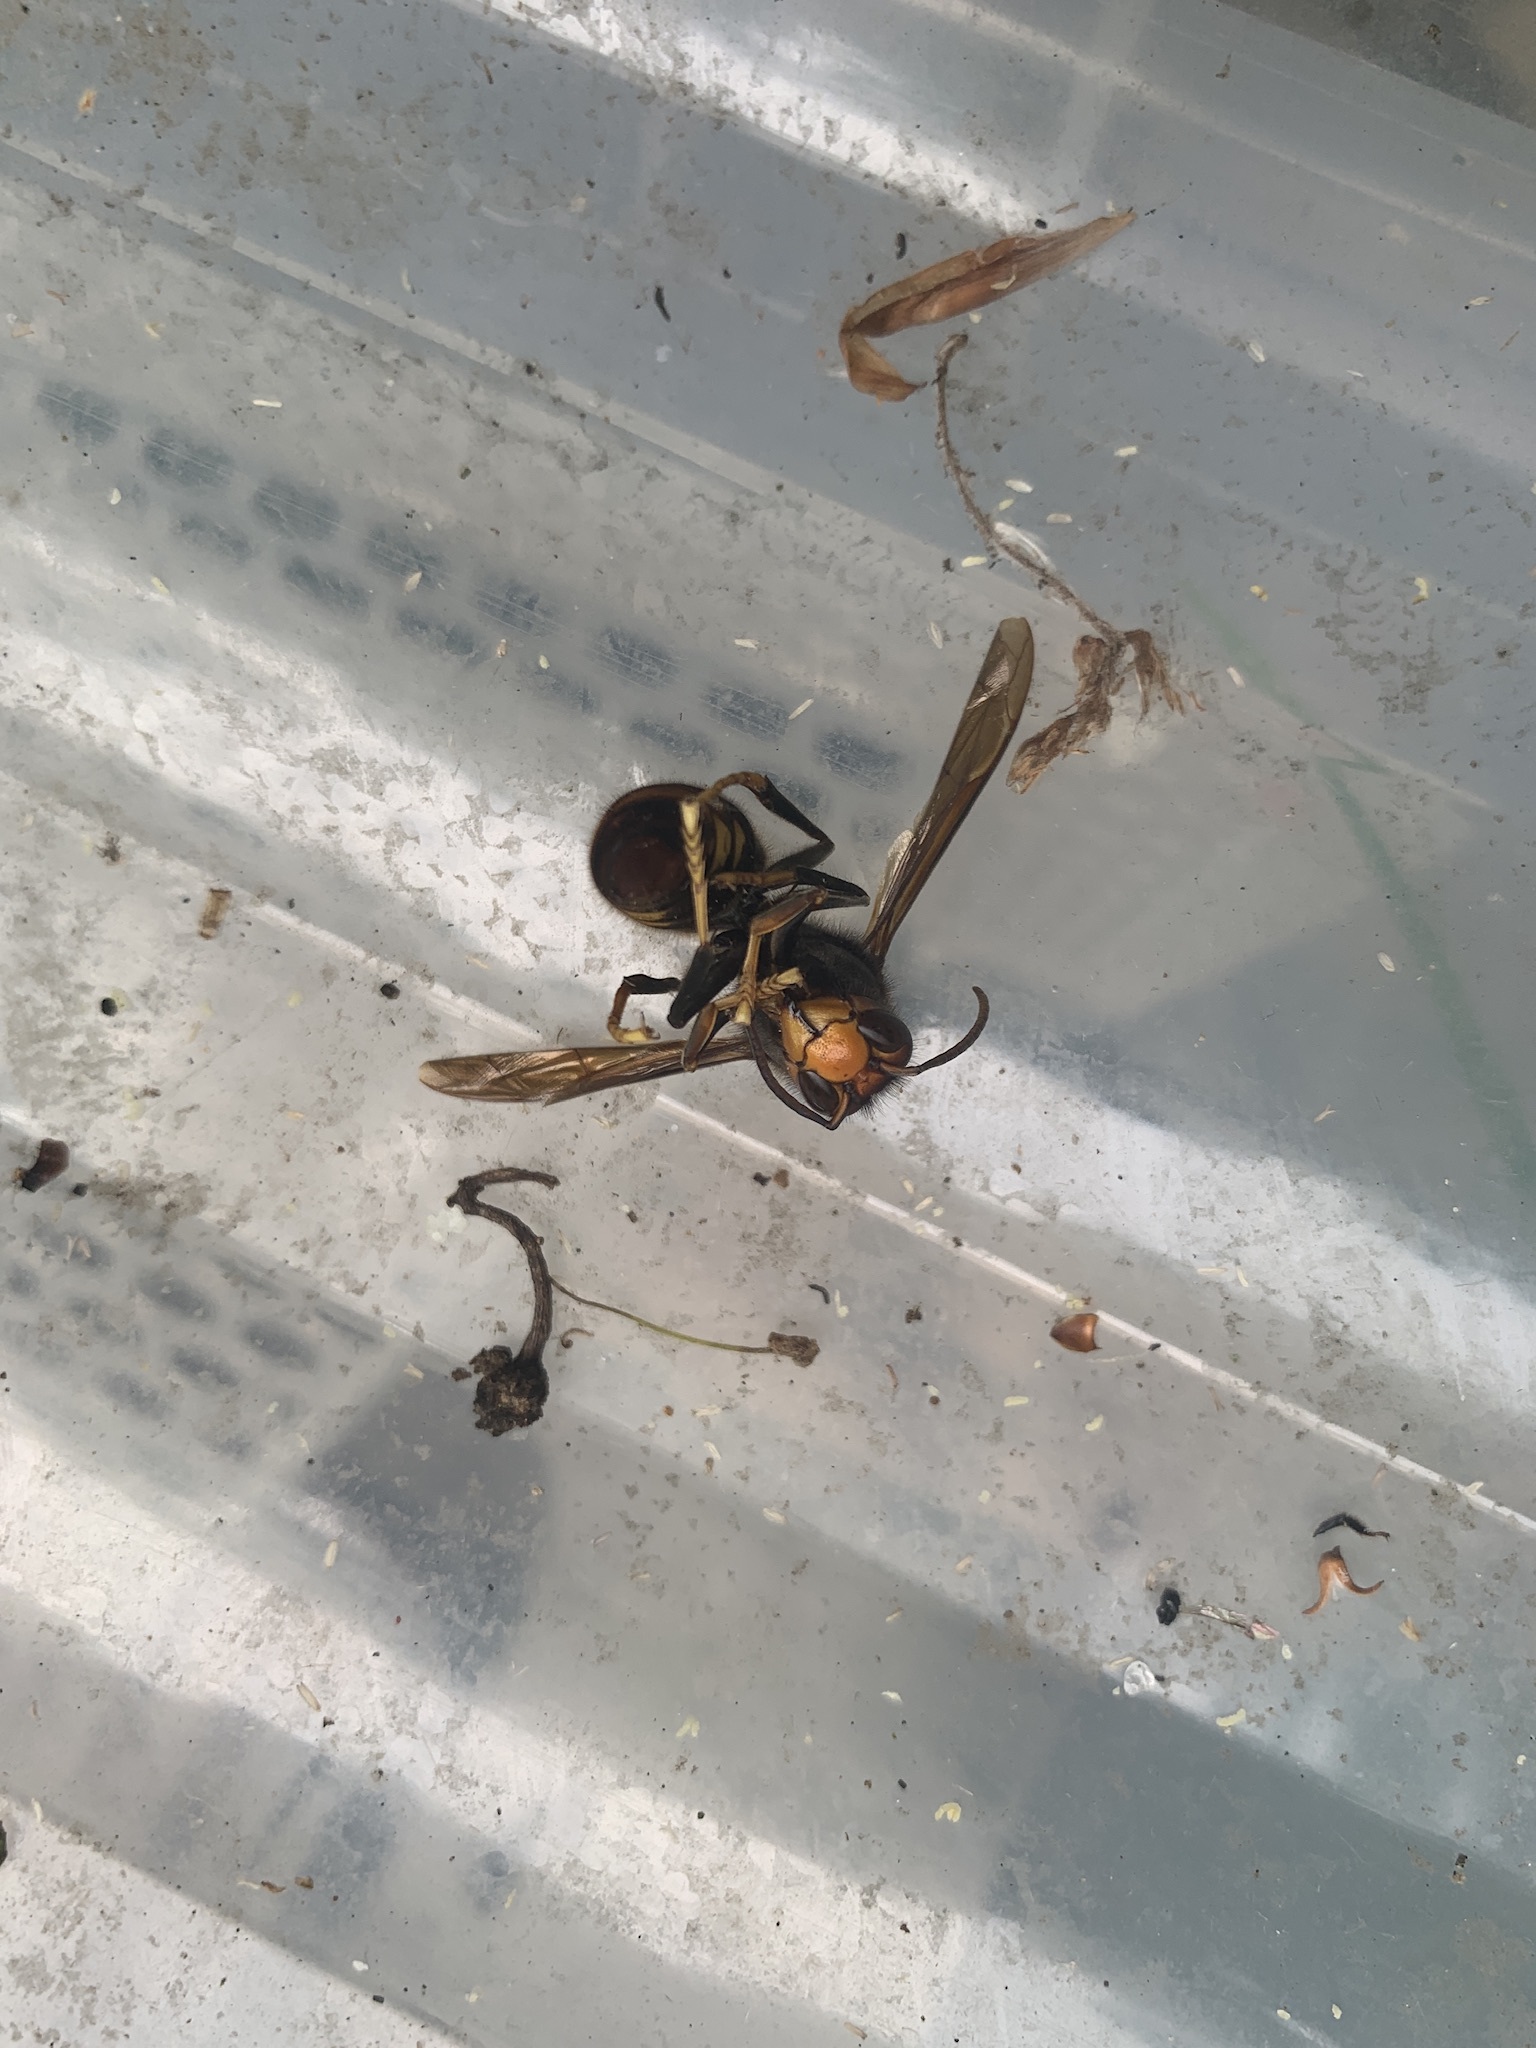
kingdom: Animalia
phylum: Arthropoda
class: Insecta
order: Hymenoptera
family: Vespidae
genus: Vespa
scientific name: Vespa velutina
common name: Asian hornet
